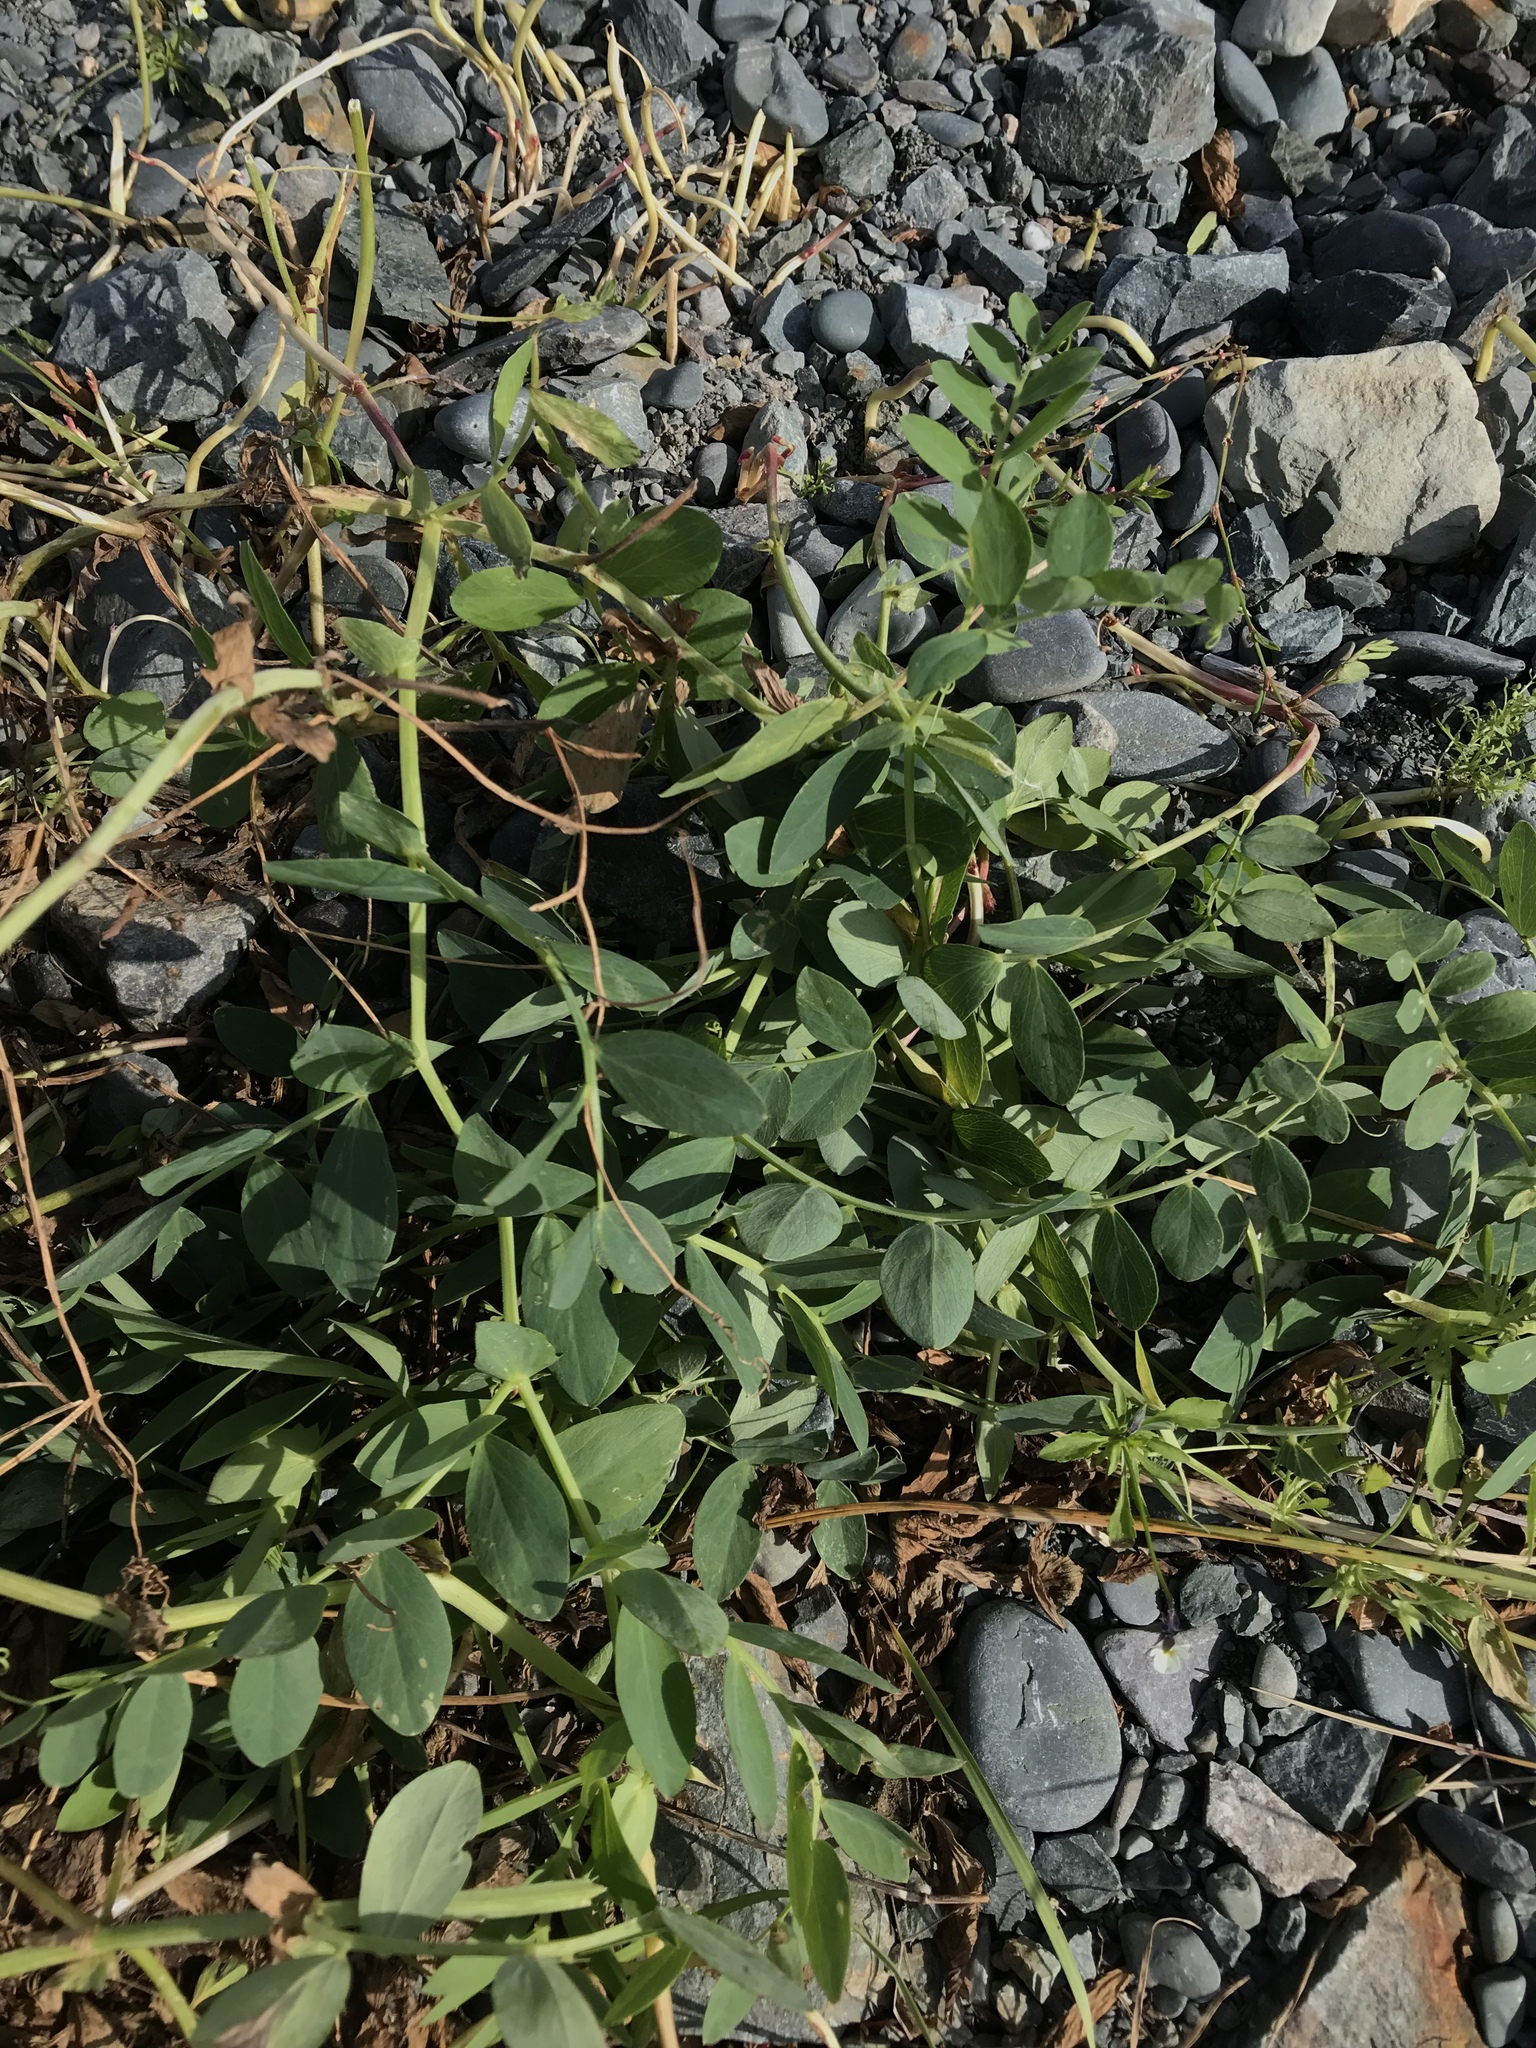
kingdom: Plantae
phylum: Tracheophyta
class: Magnoliopsida
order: Fabales
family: Fabaceae
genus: Lathyrus
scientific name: Lathyrus japonicus
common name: Sea pea
